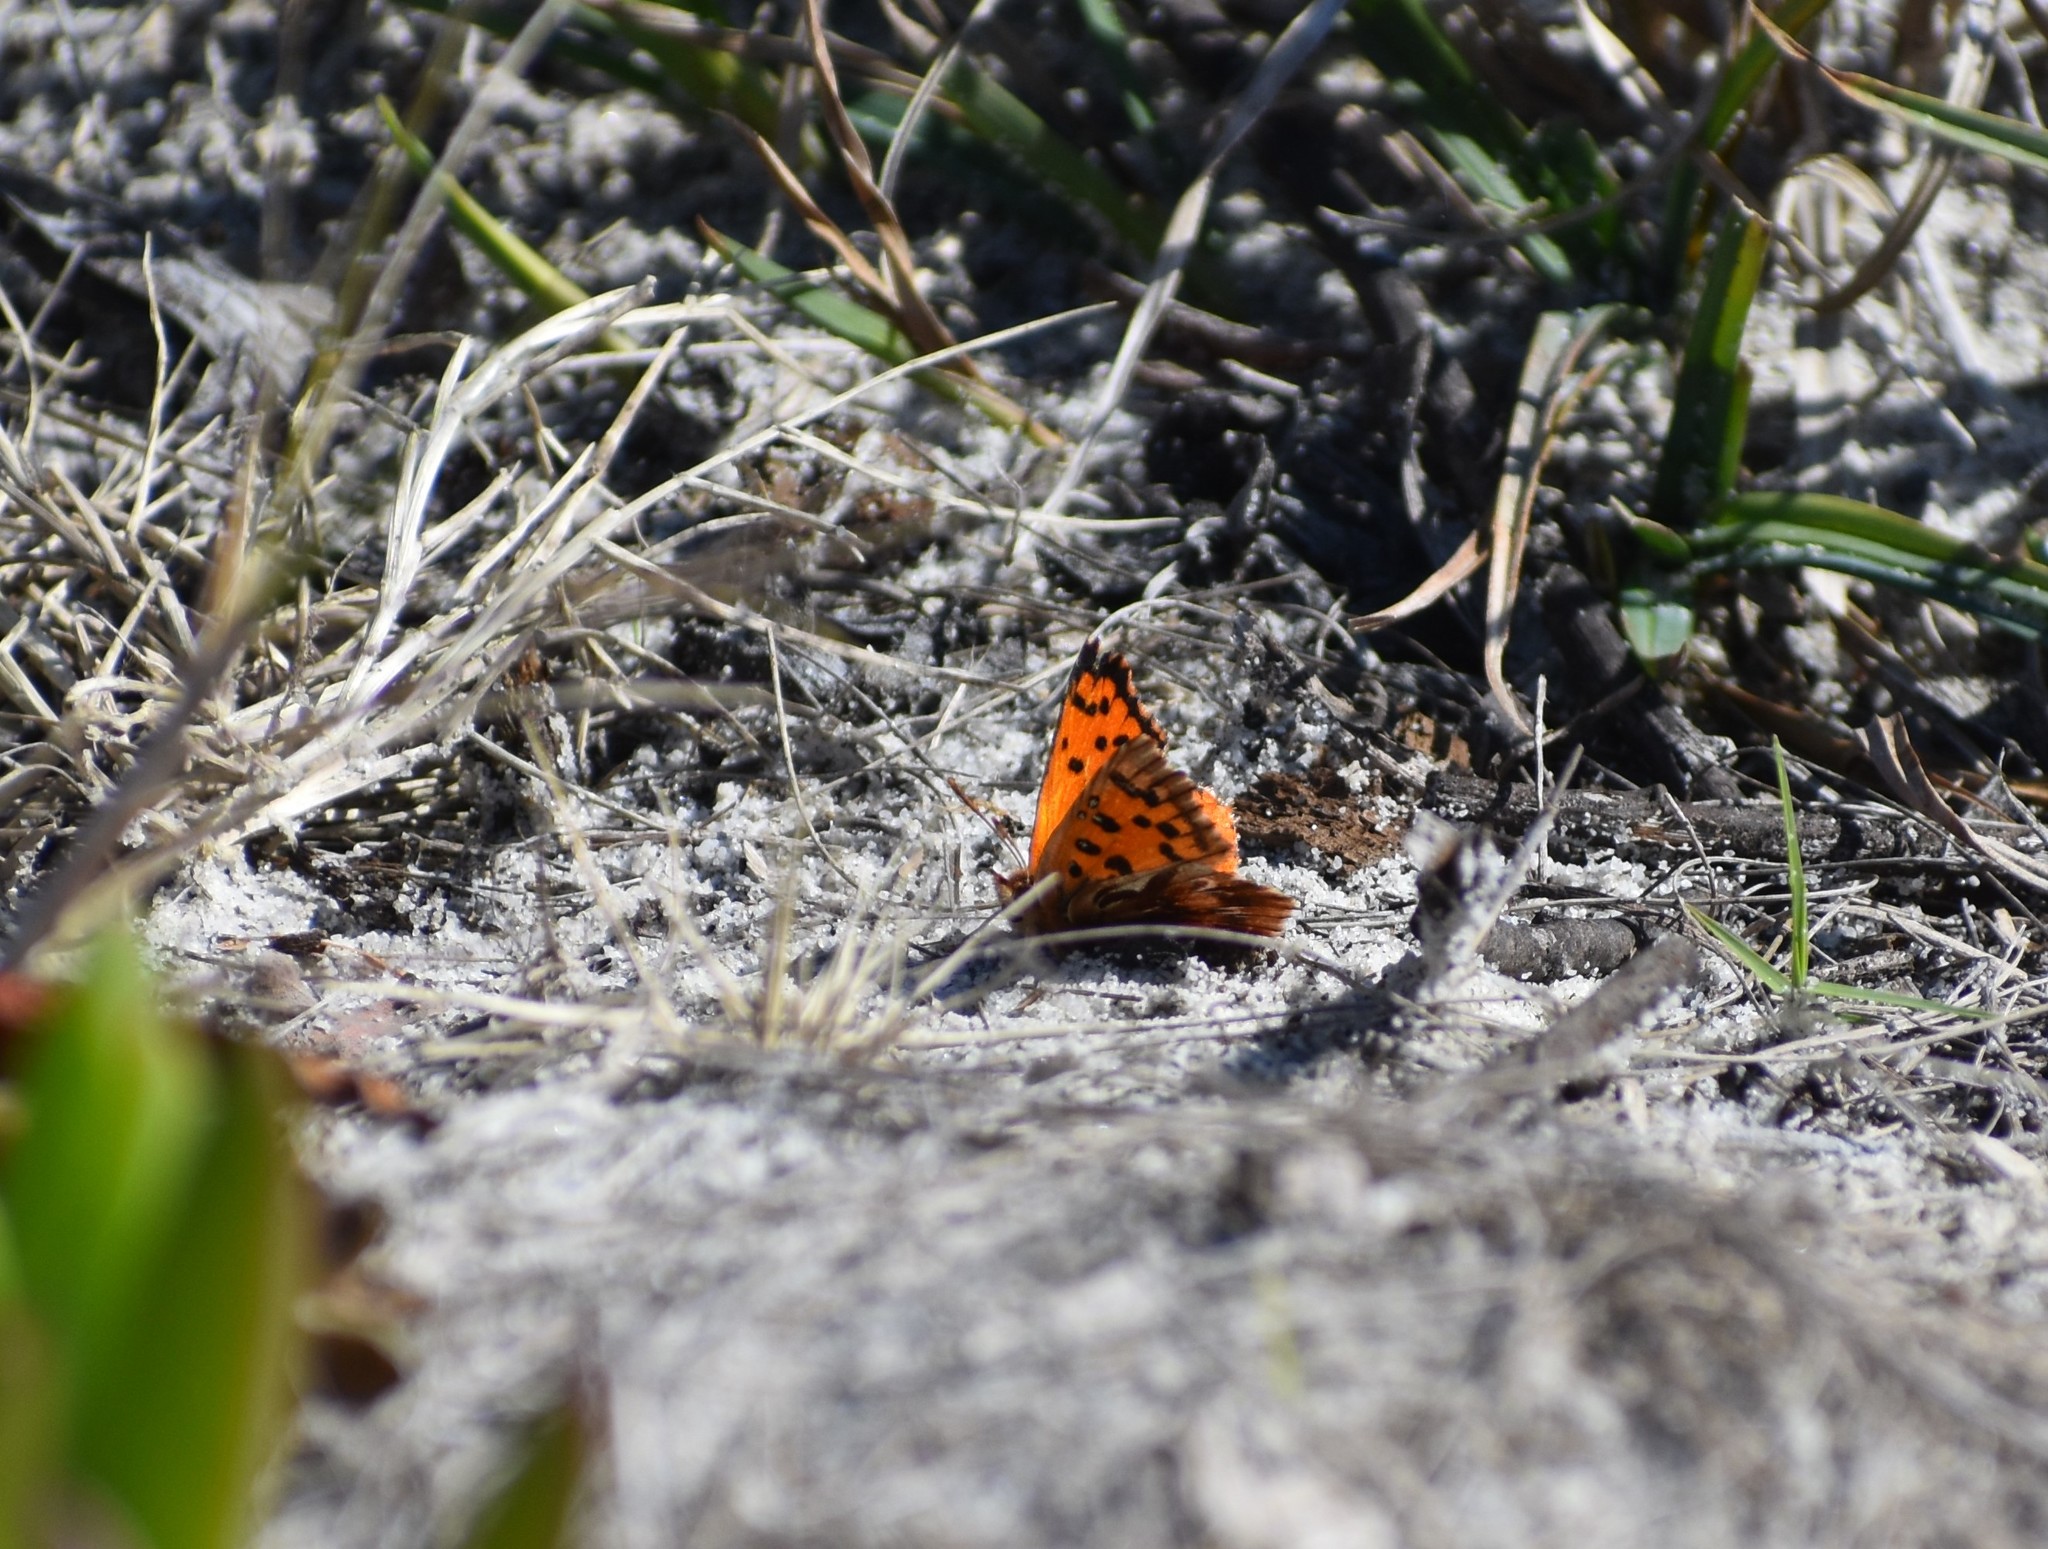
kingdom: Animalia
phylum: Arthropoda
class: Insecta
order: Lepidoptera
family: Lycaenidae
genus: Chrysoritis
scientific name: Chrysoritis
